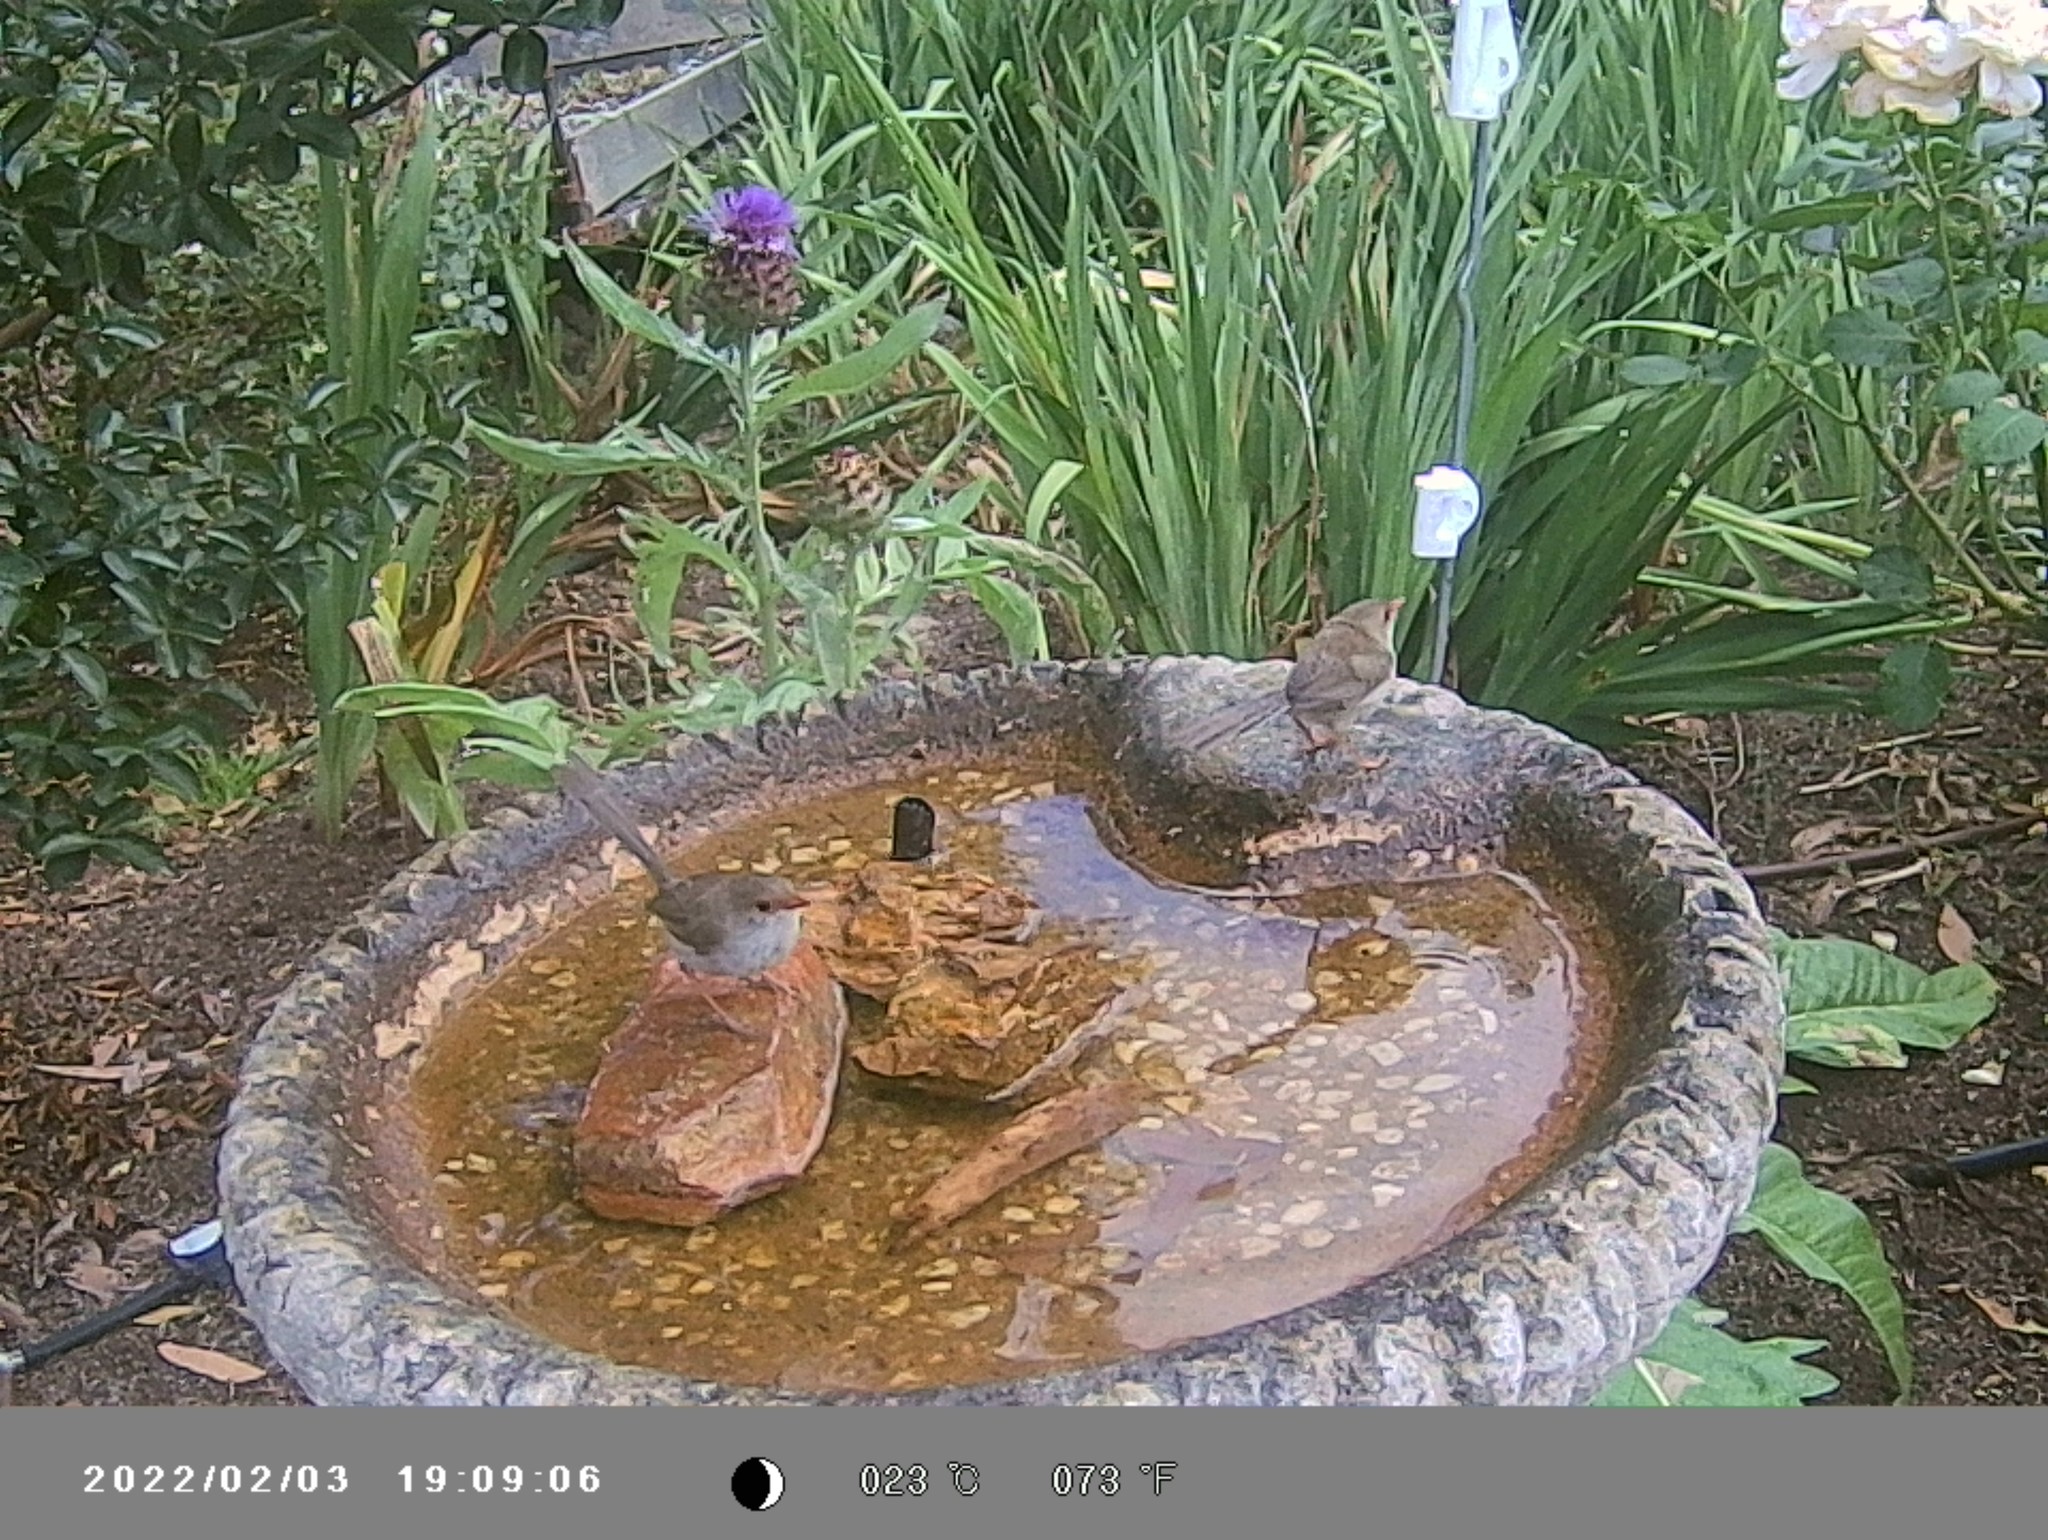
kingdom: Animalia
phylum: Chordata
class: Aves
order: Passeriformes
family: Maluridae
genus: Malurus
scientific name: Malurus cyaneus
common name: Superb fairywren
